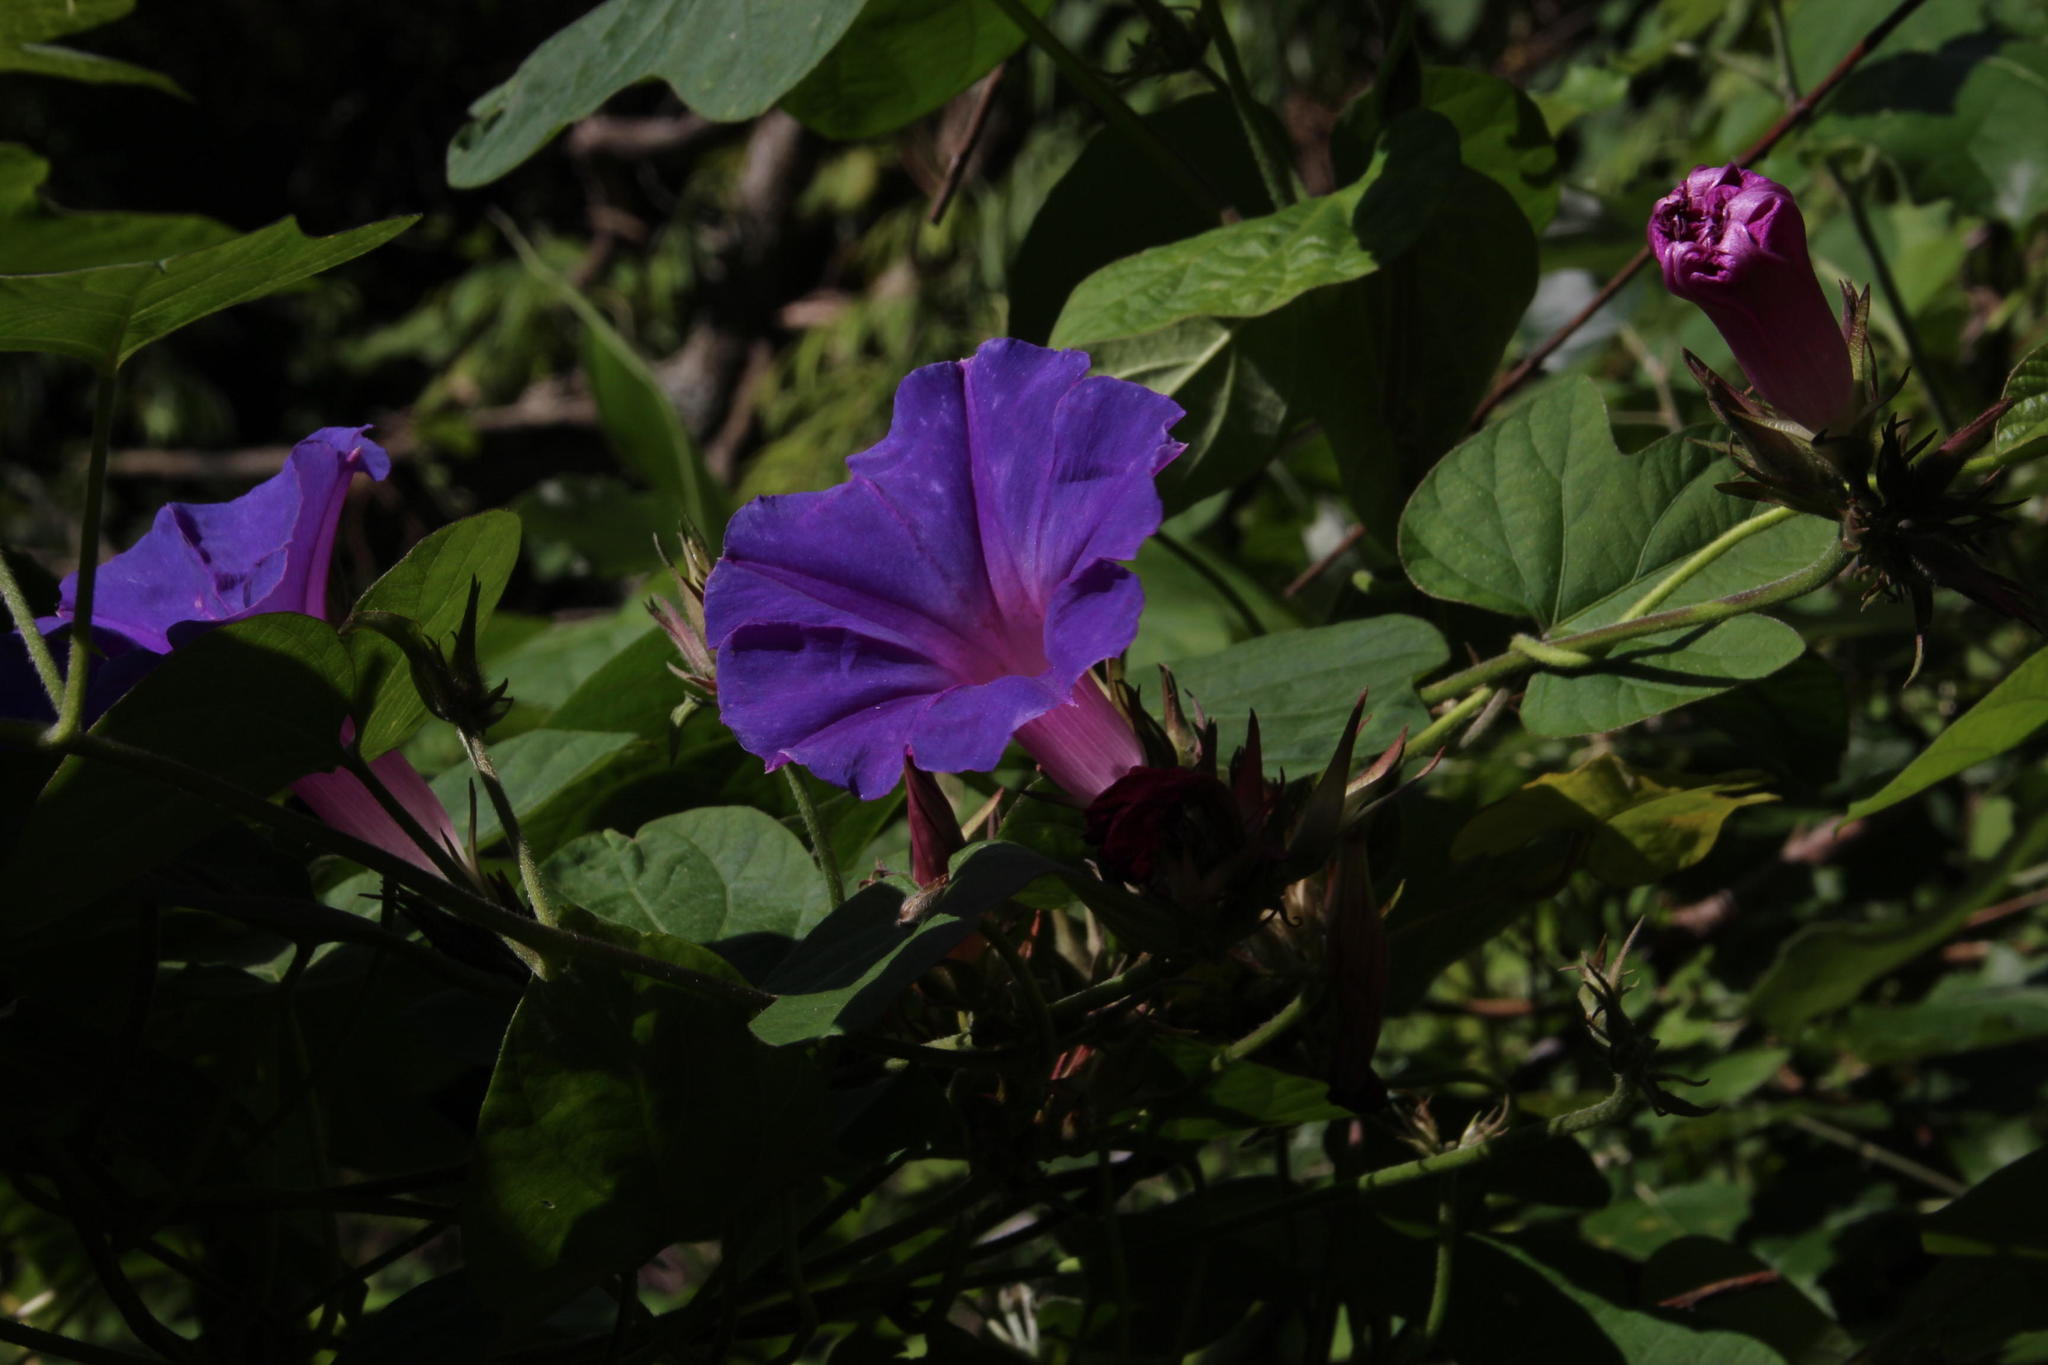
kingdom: Plantae
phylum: Tracheophyta
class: Magnoliopsida
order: Solanales
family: Convolvulaceae
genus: Ipomoea
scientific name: Ipomoea indica
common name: Blue dawnflower
